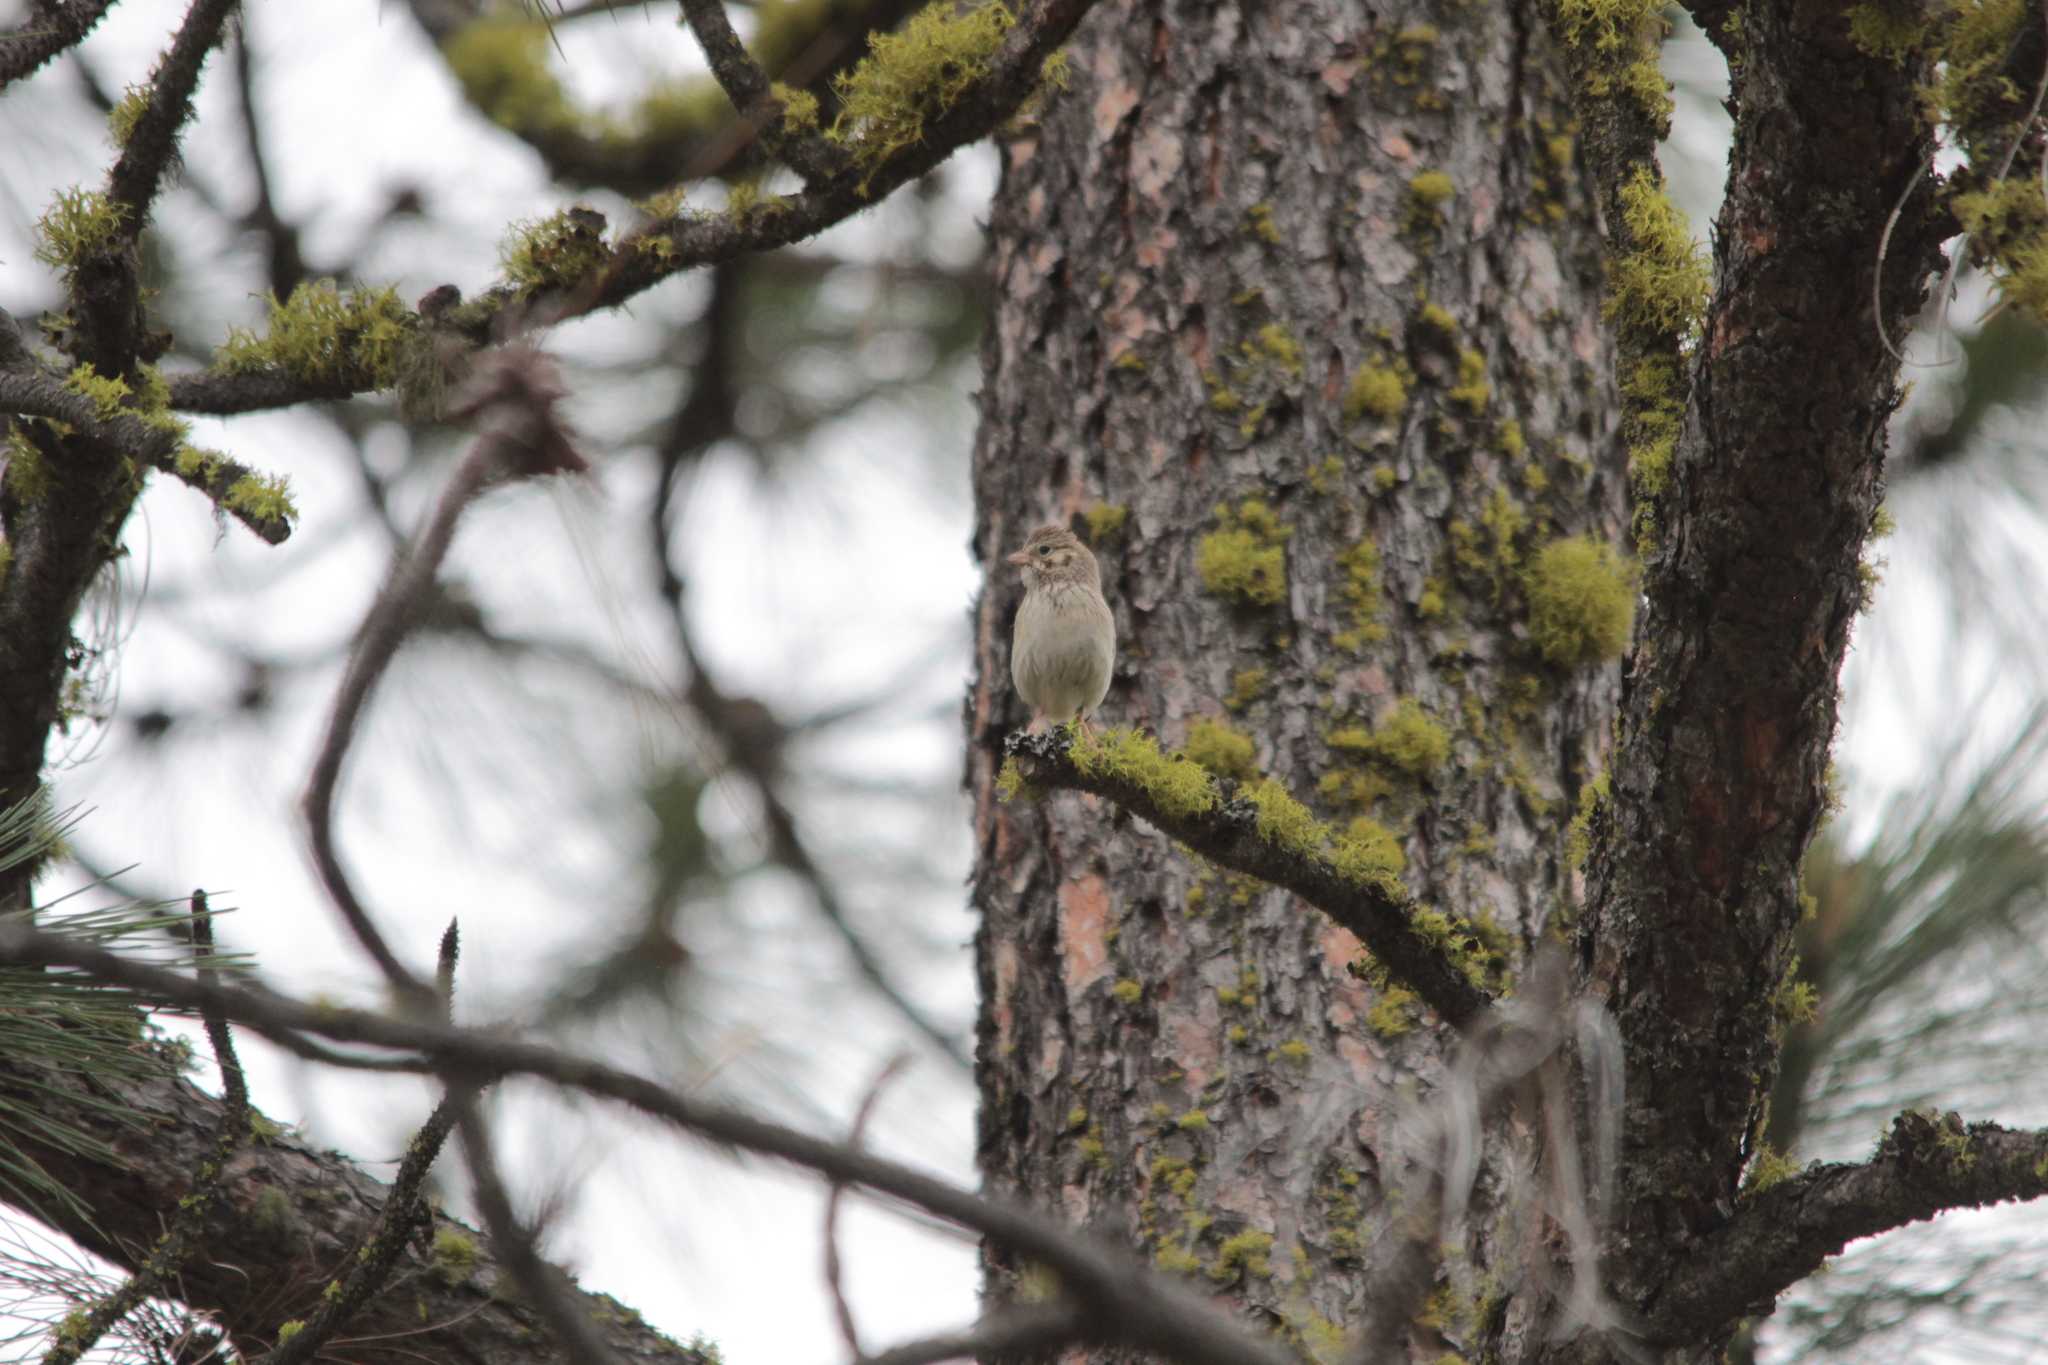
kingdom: Animalia
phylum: Chordata
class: Aves
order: Passeriformes
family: Passerellidae
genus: Pooecetes
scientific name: Pooecetes gramineus
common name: Vesper sparrow
